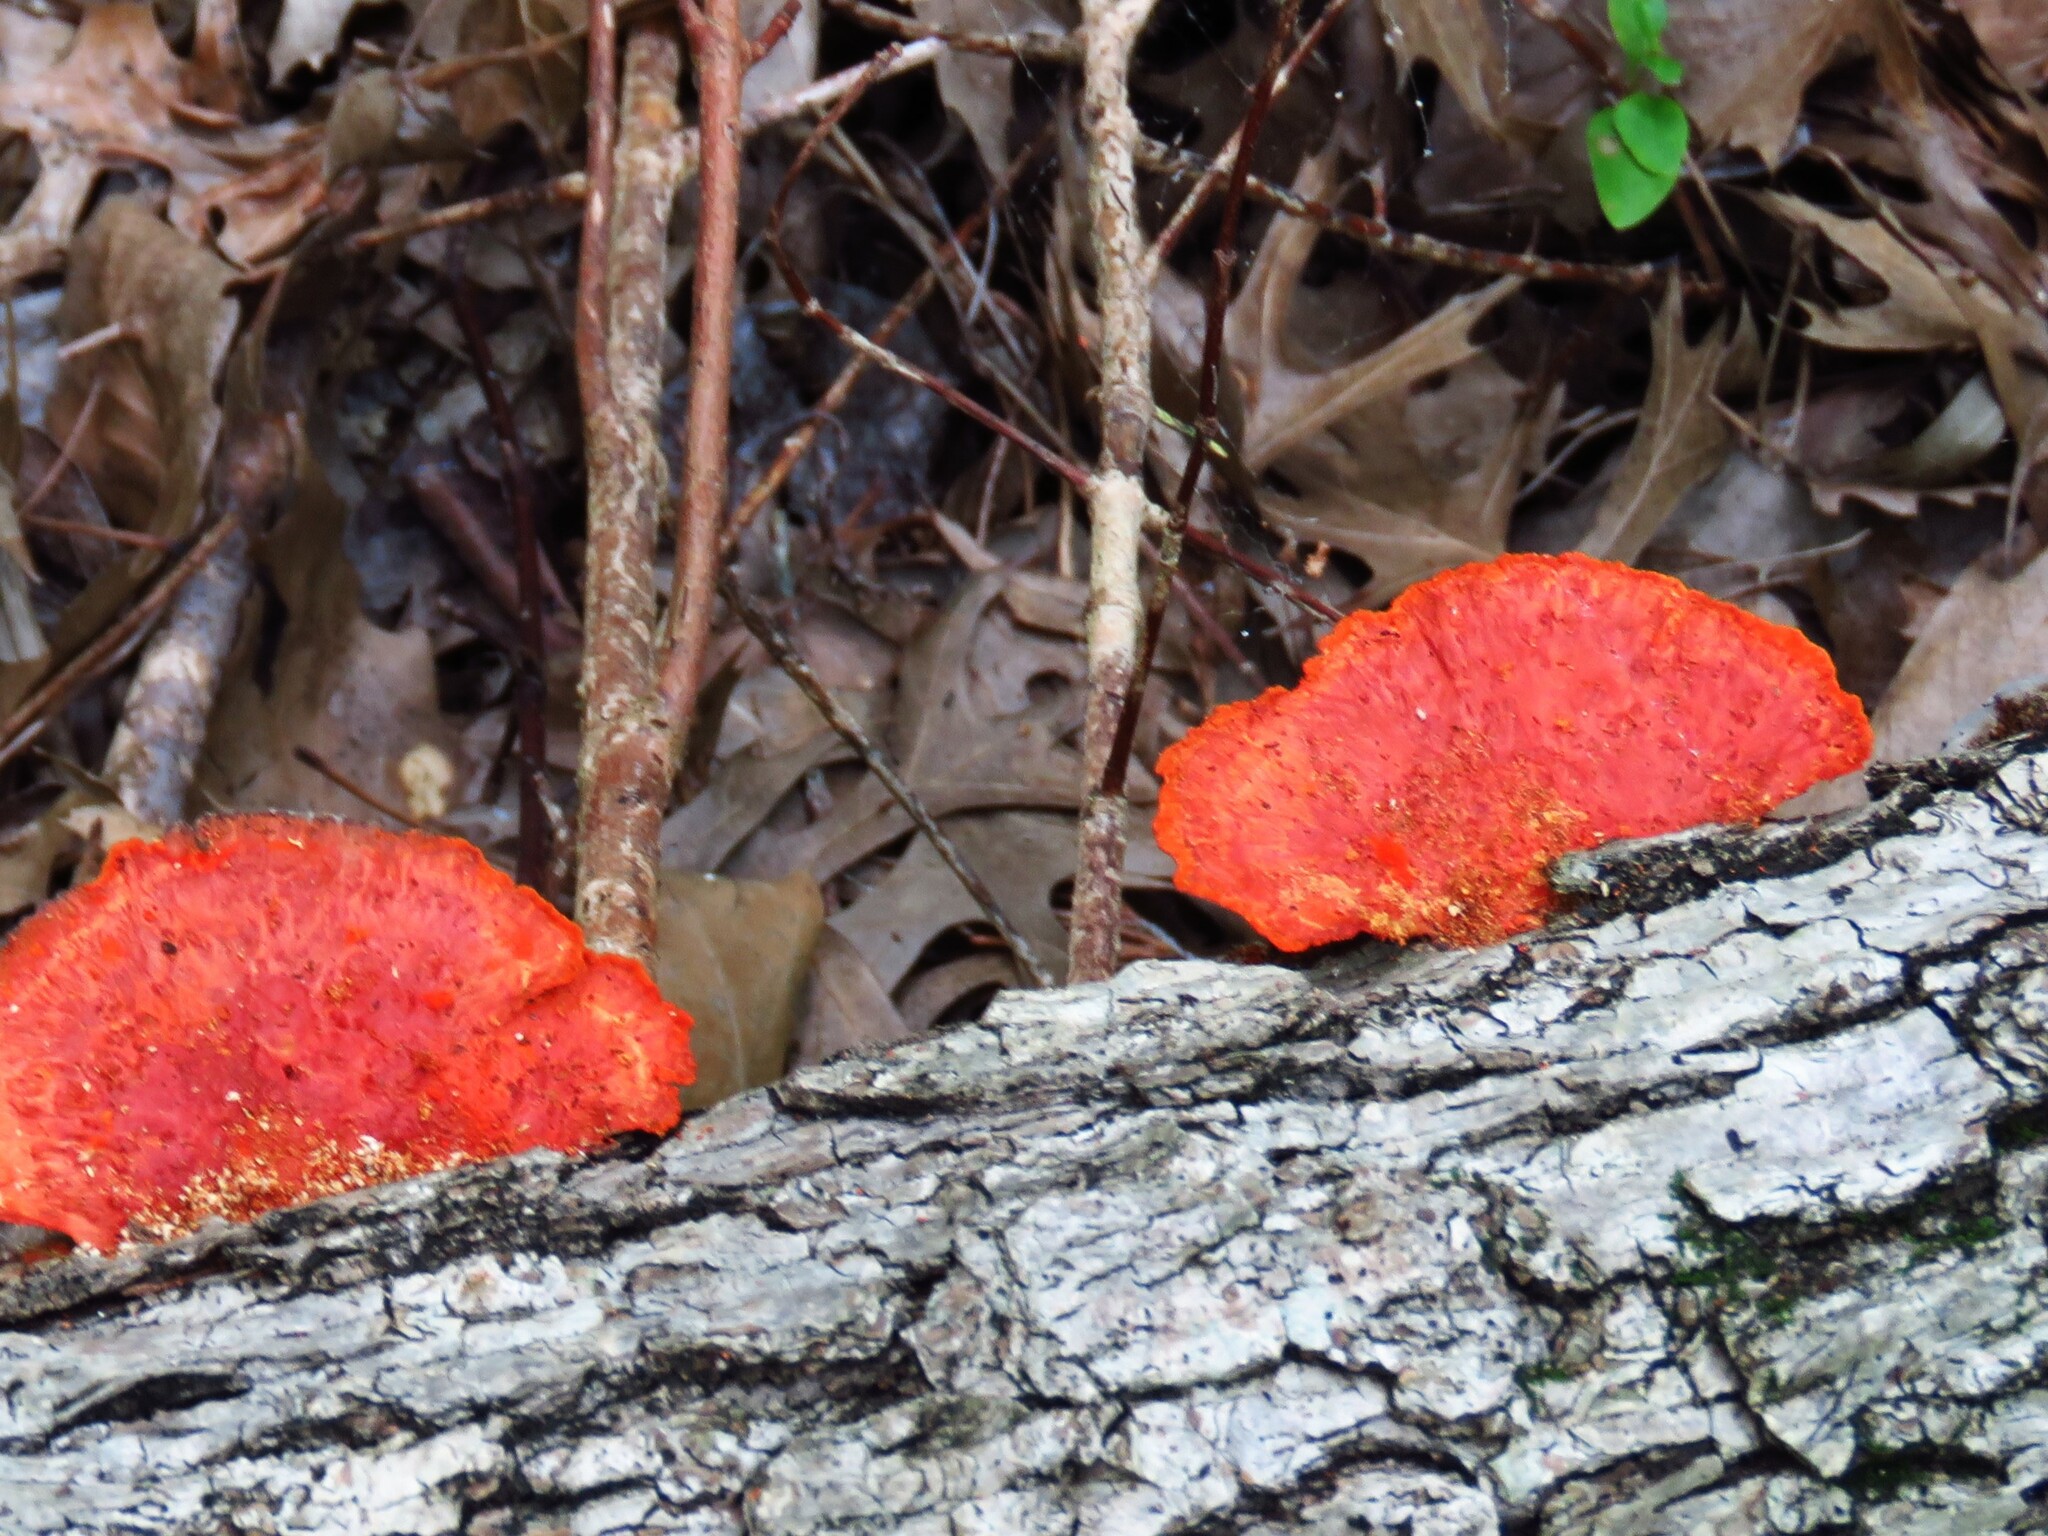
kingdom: Fungi
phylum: Basidiomycota
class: Agaricomycetes
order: Polyporales
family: Polyporaceae
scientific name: Polyporaceae
